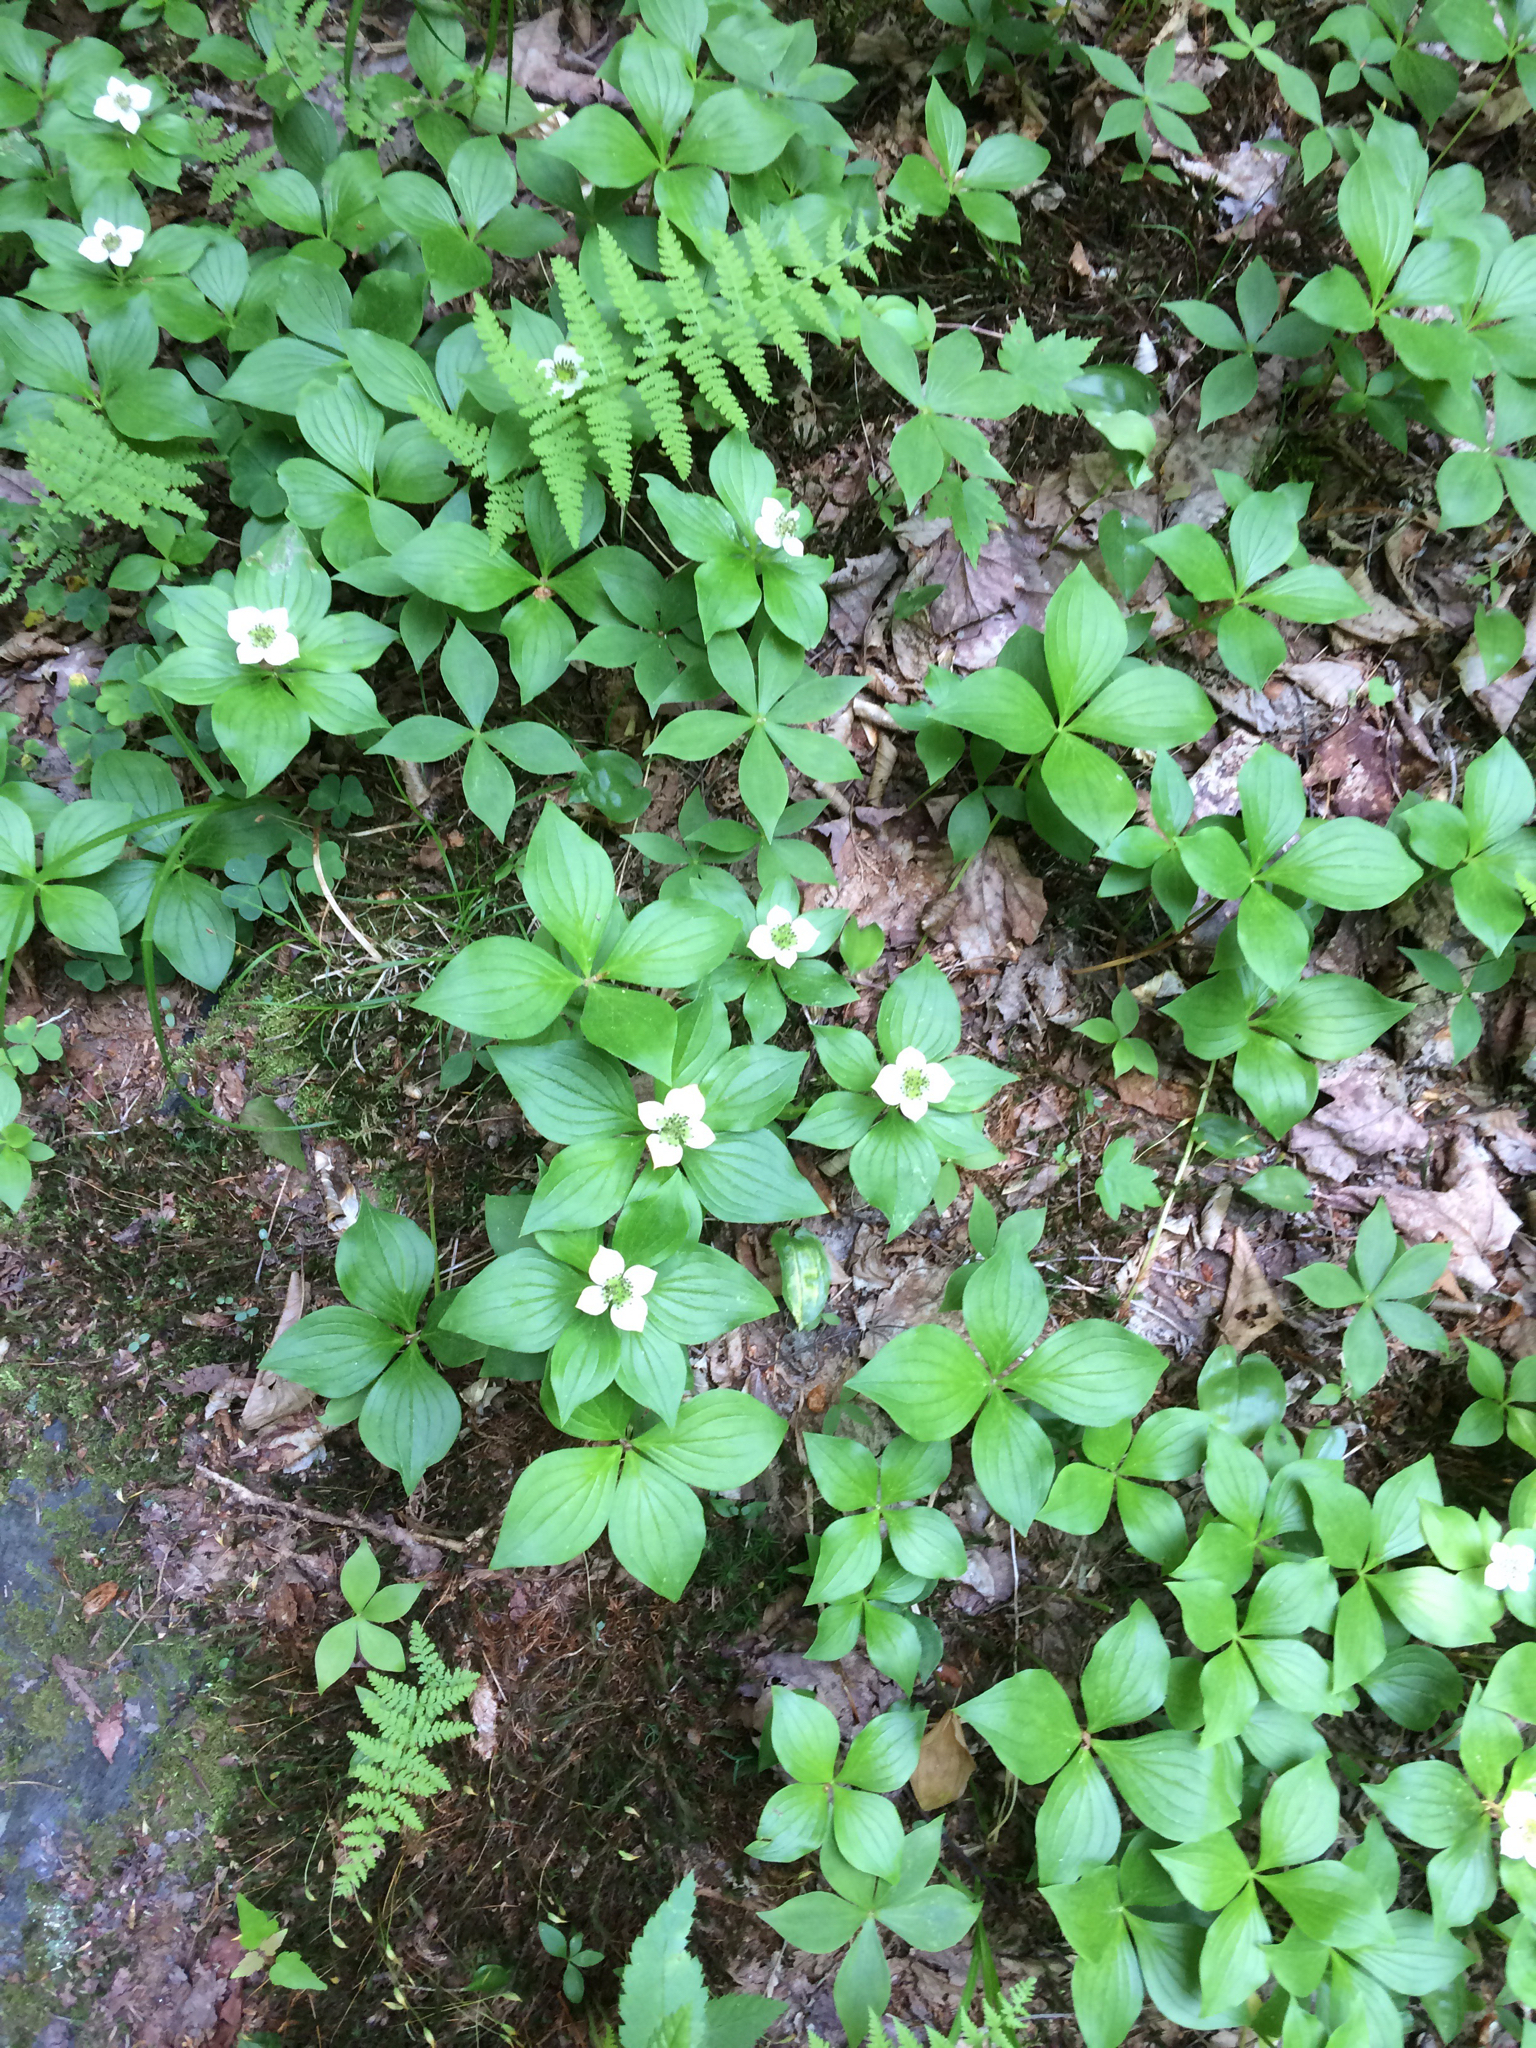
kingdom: Plantae
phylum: Tracheophyta
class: Magnoliopsida
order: Cornales
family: Cornaceae
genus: Cornus
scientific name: Cornus canadensis
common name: Creeping dogwood
